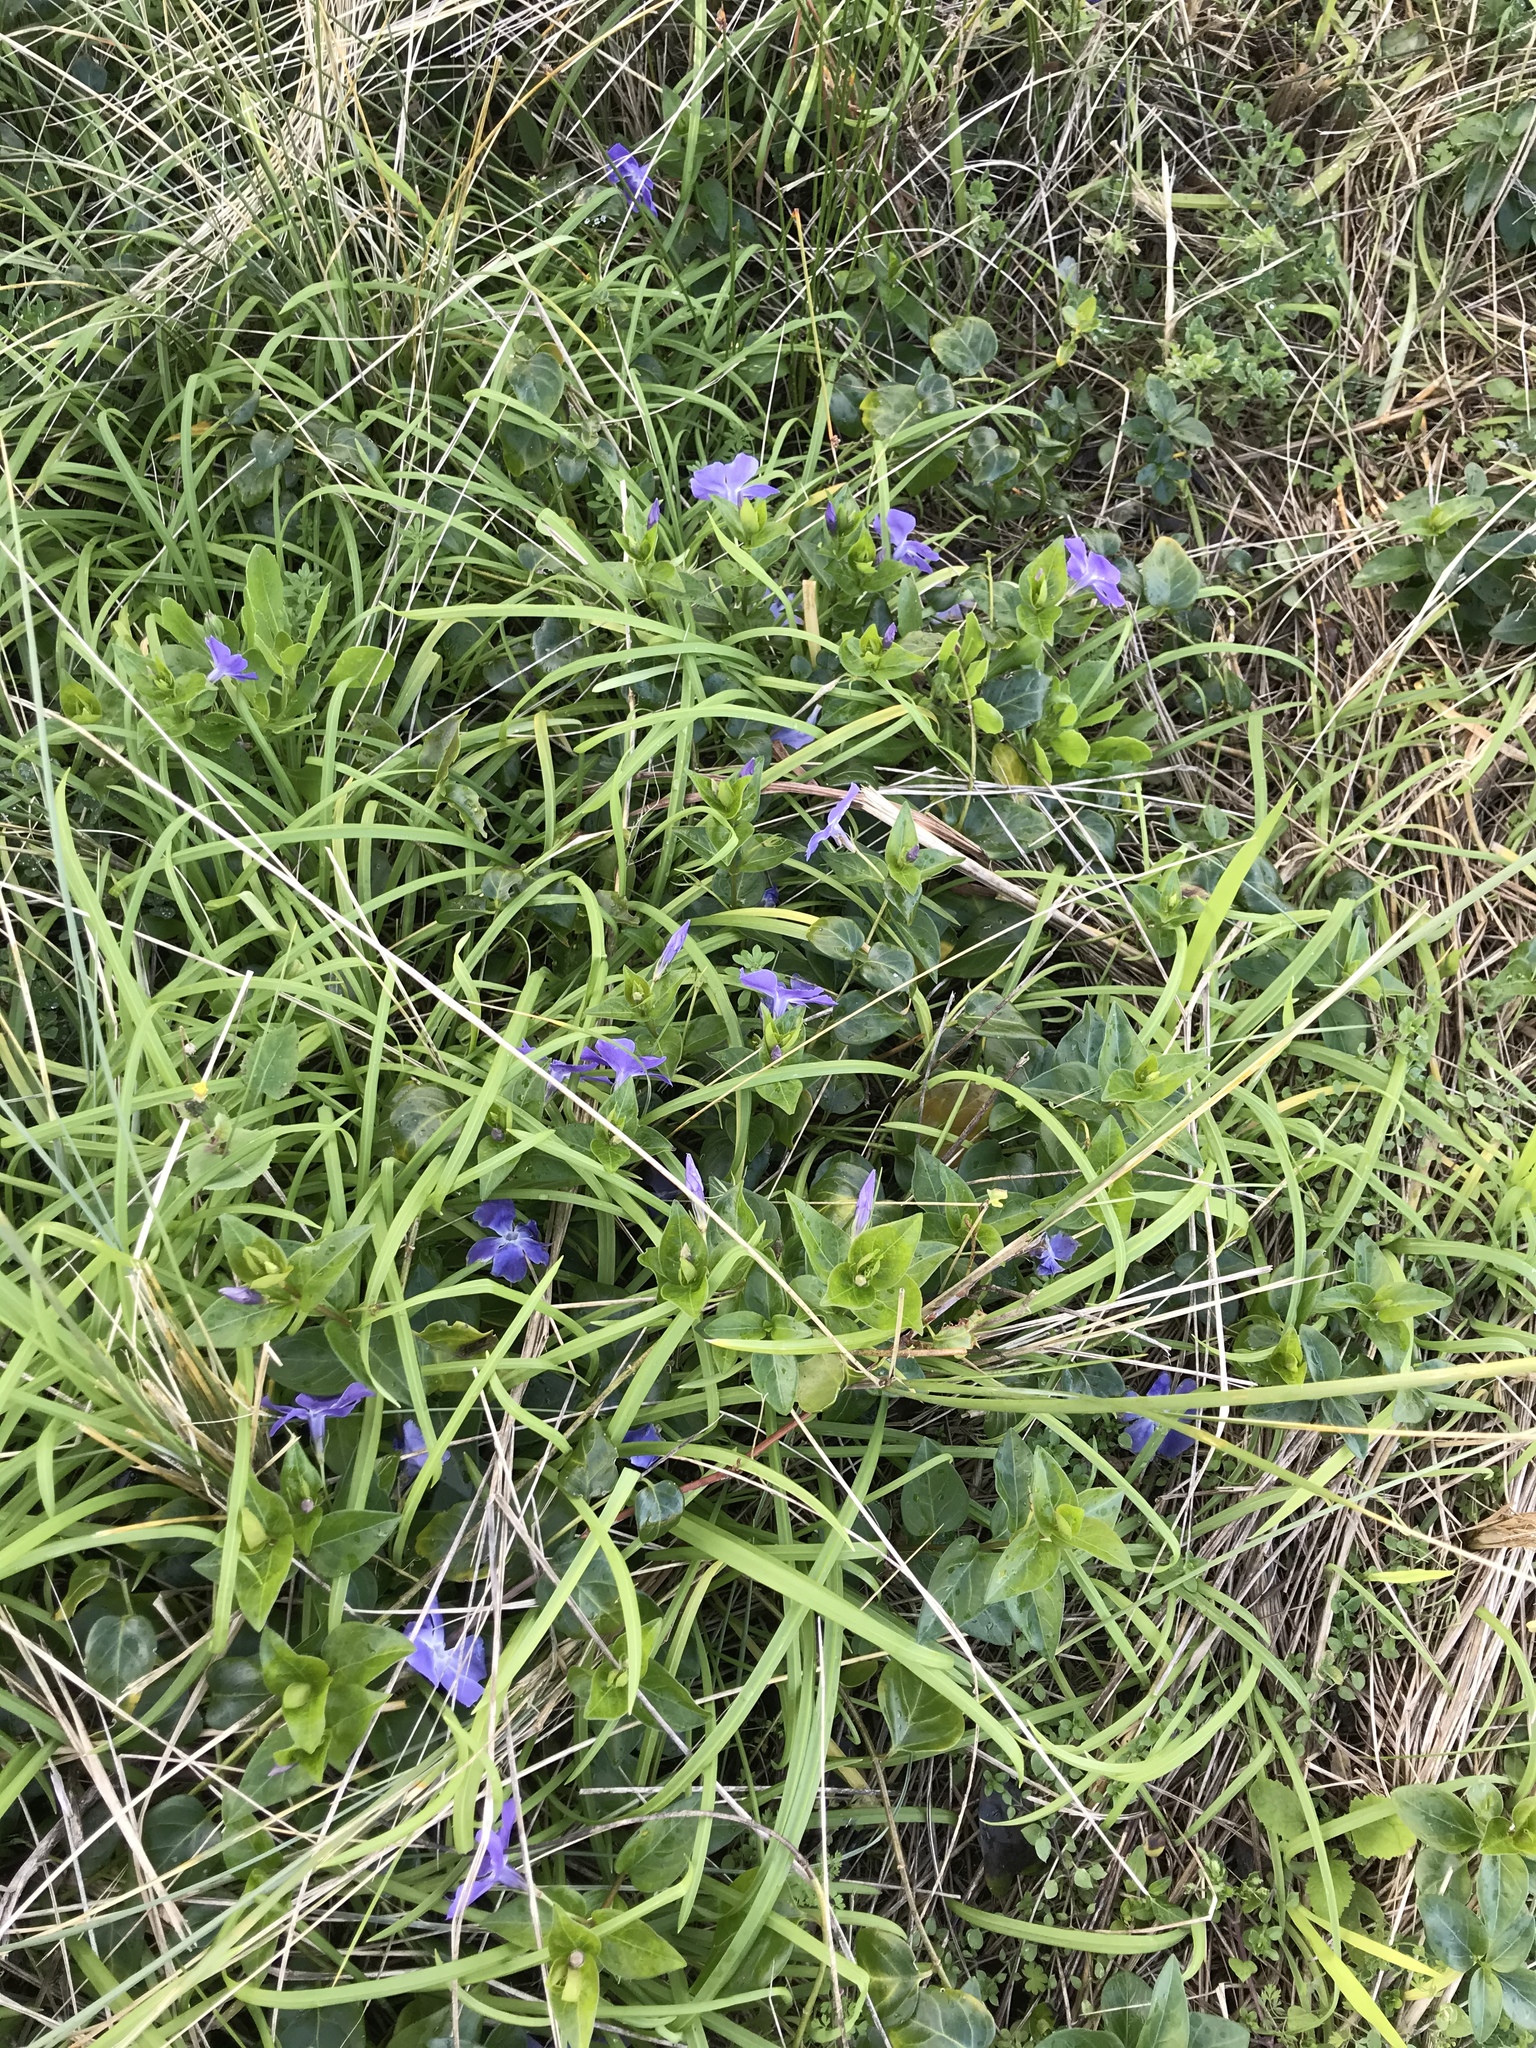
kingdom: Plantae
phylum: Tracheophyta
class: Magnoliopsida
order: Gentianales
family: Apocynaceae
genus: Vinca
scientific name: Vinca major
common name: Greater periwinkle
